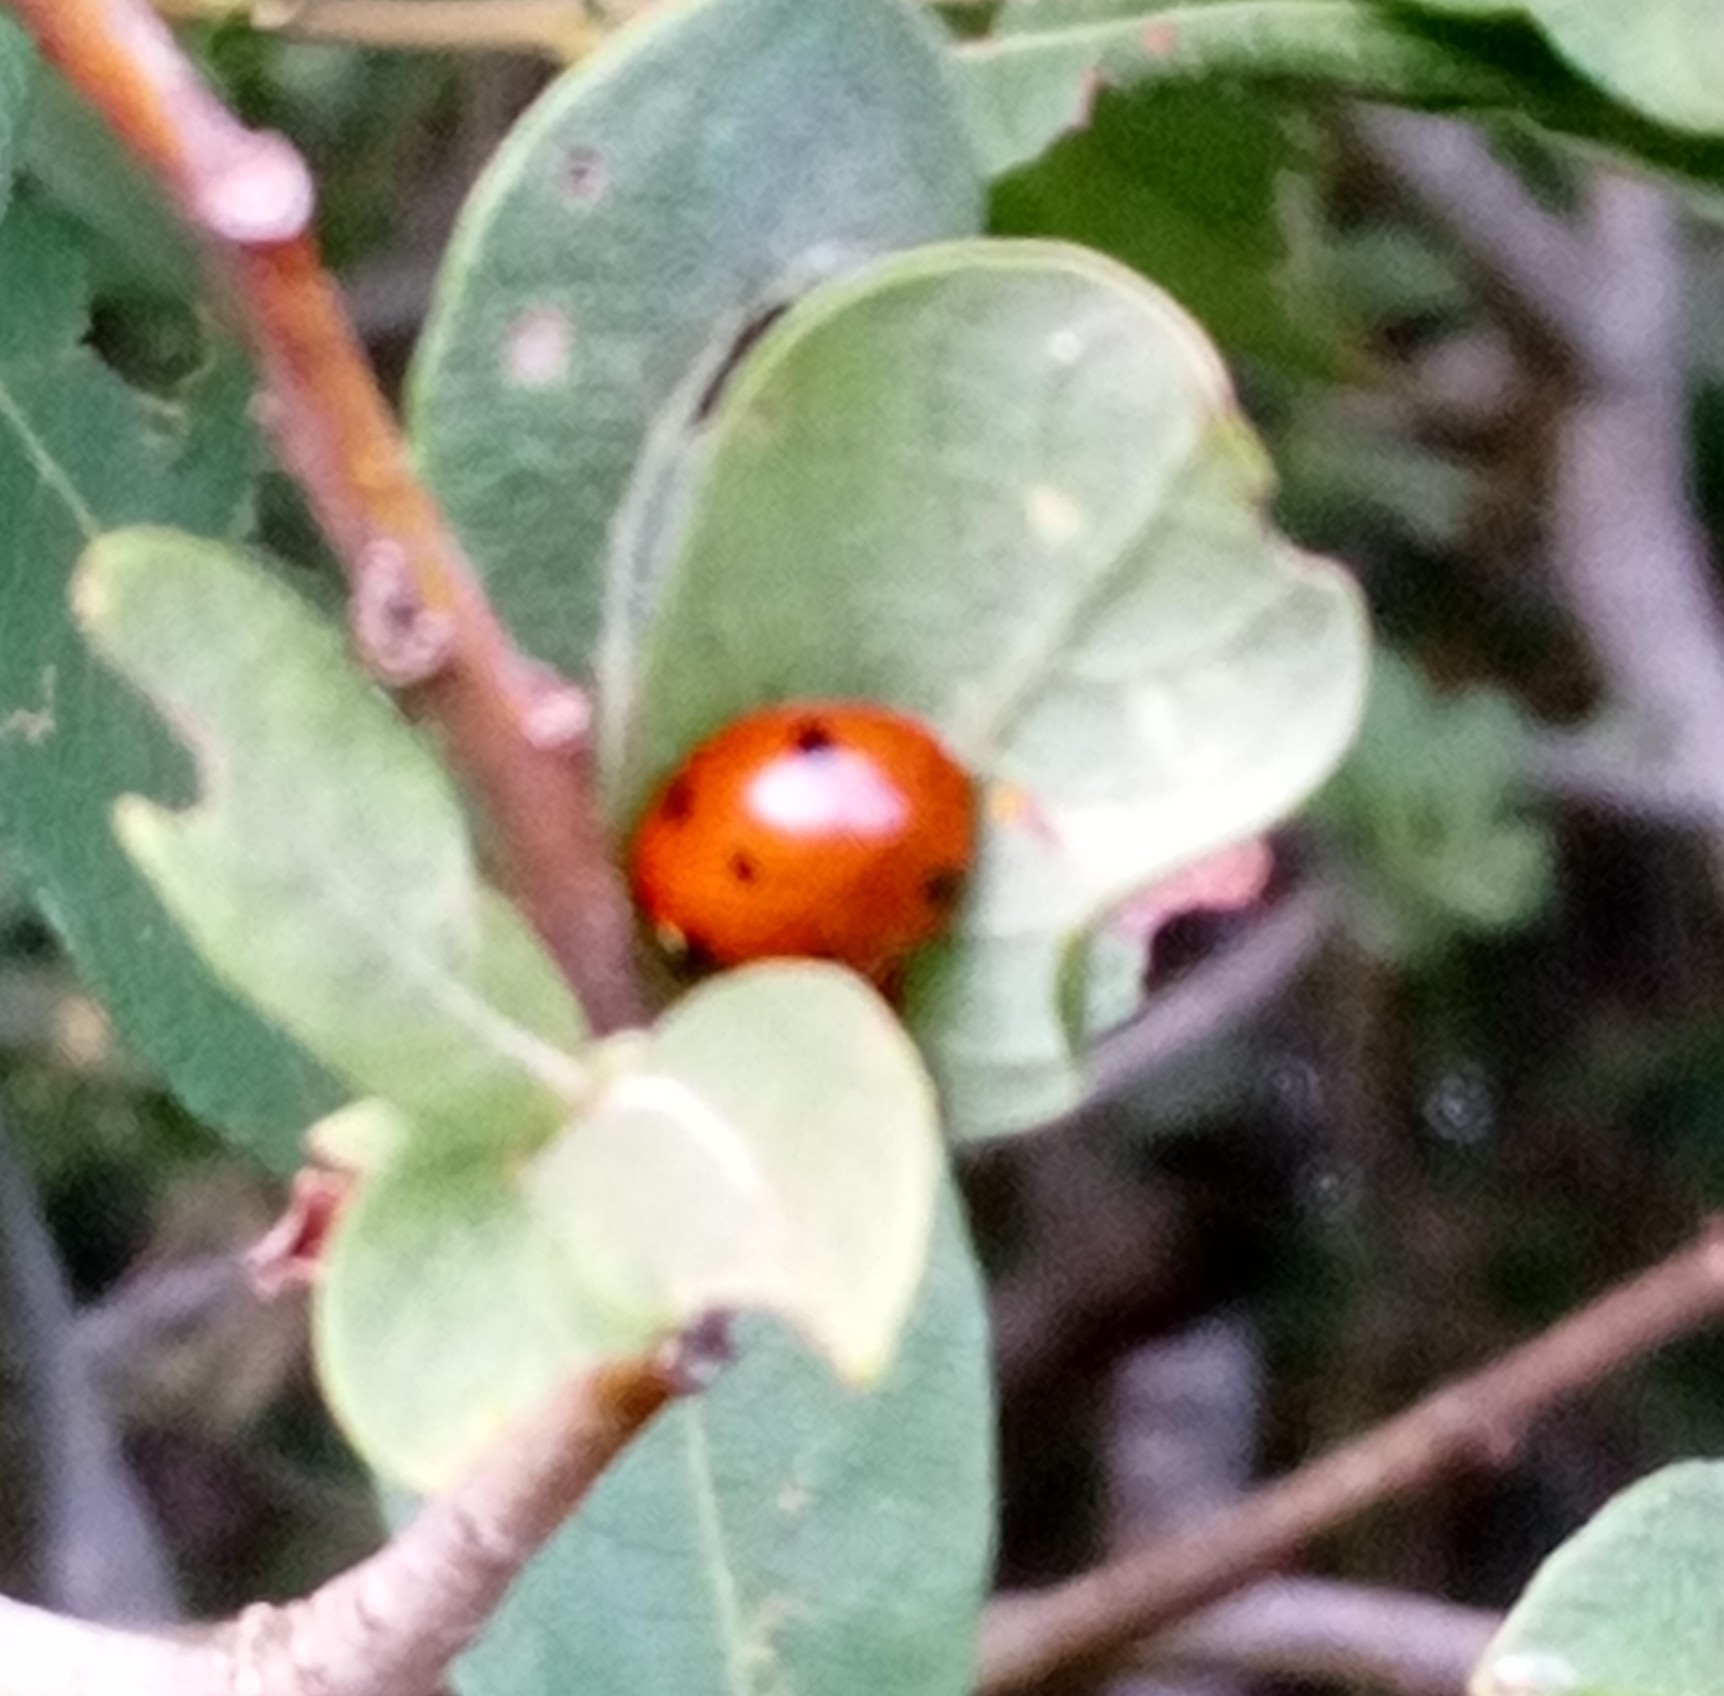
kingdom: Animalia
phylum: Arthropoda
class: Insecta
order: Coleoptera
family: Coccinellidae
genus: Coccinella
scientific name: Coccinella septempunctata
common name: Sevenspotted lady beetle
